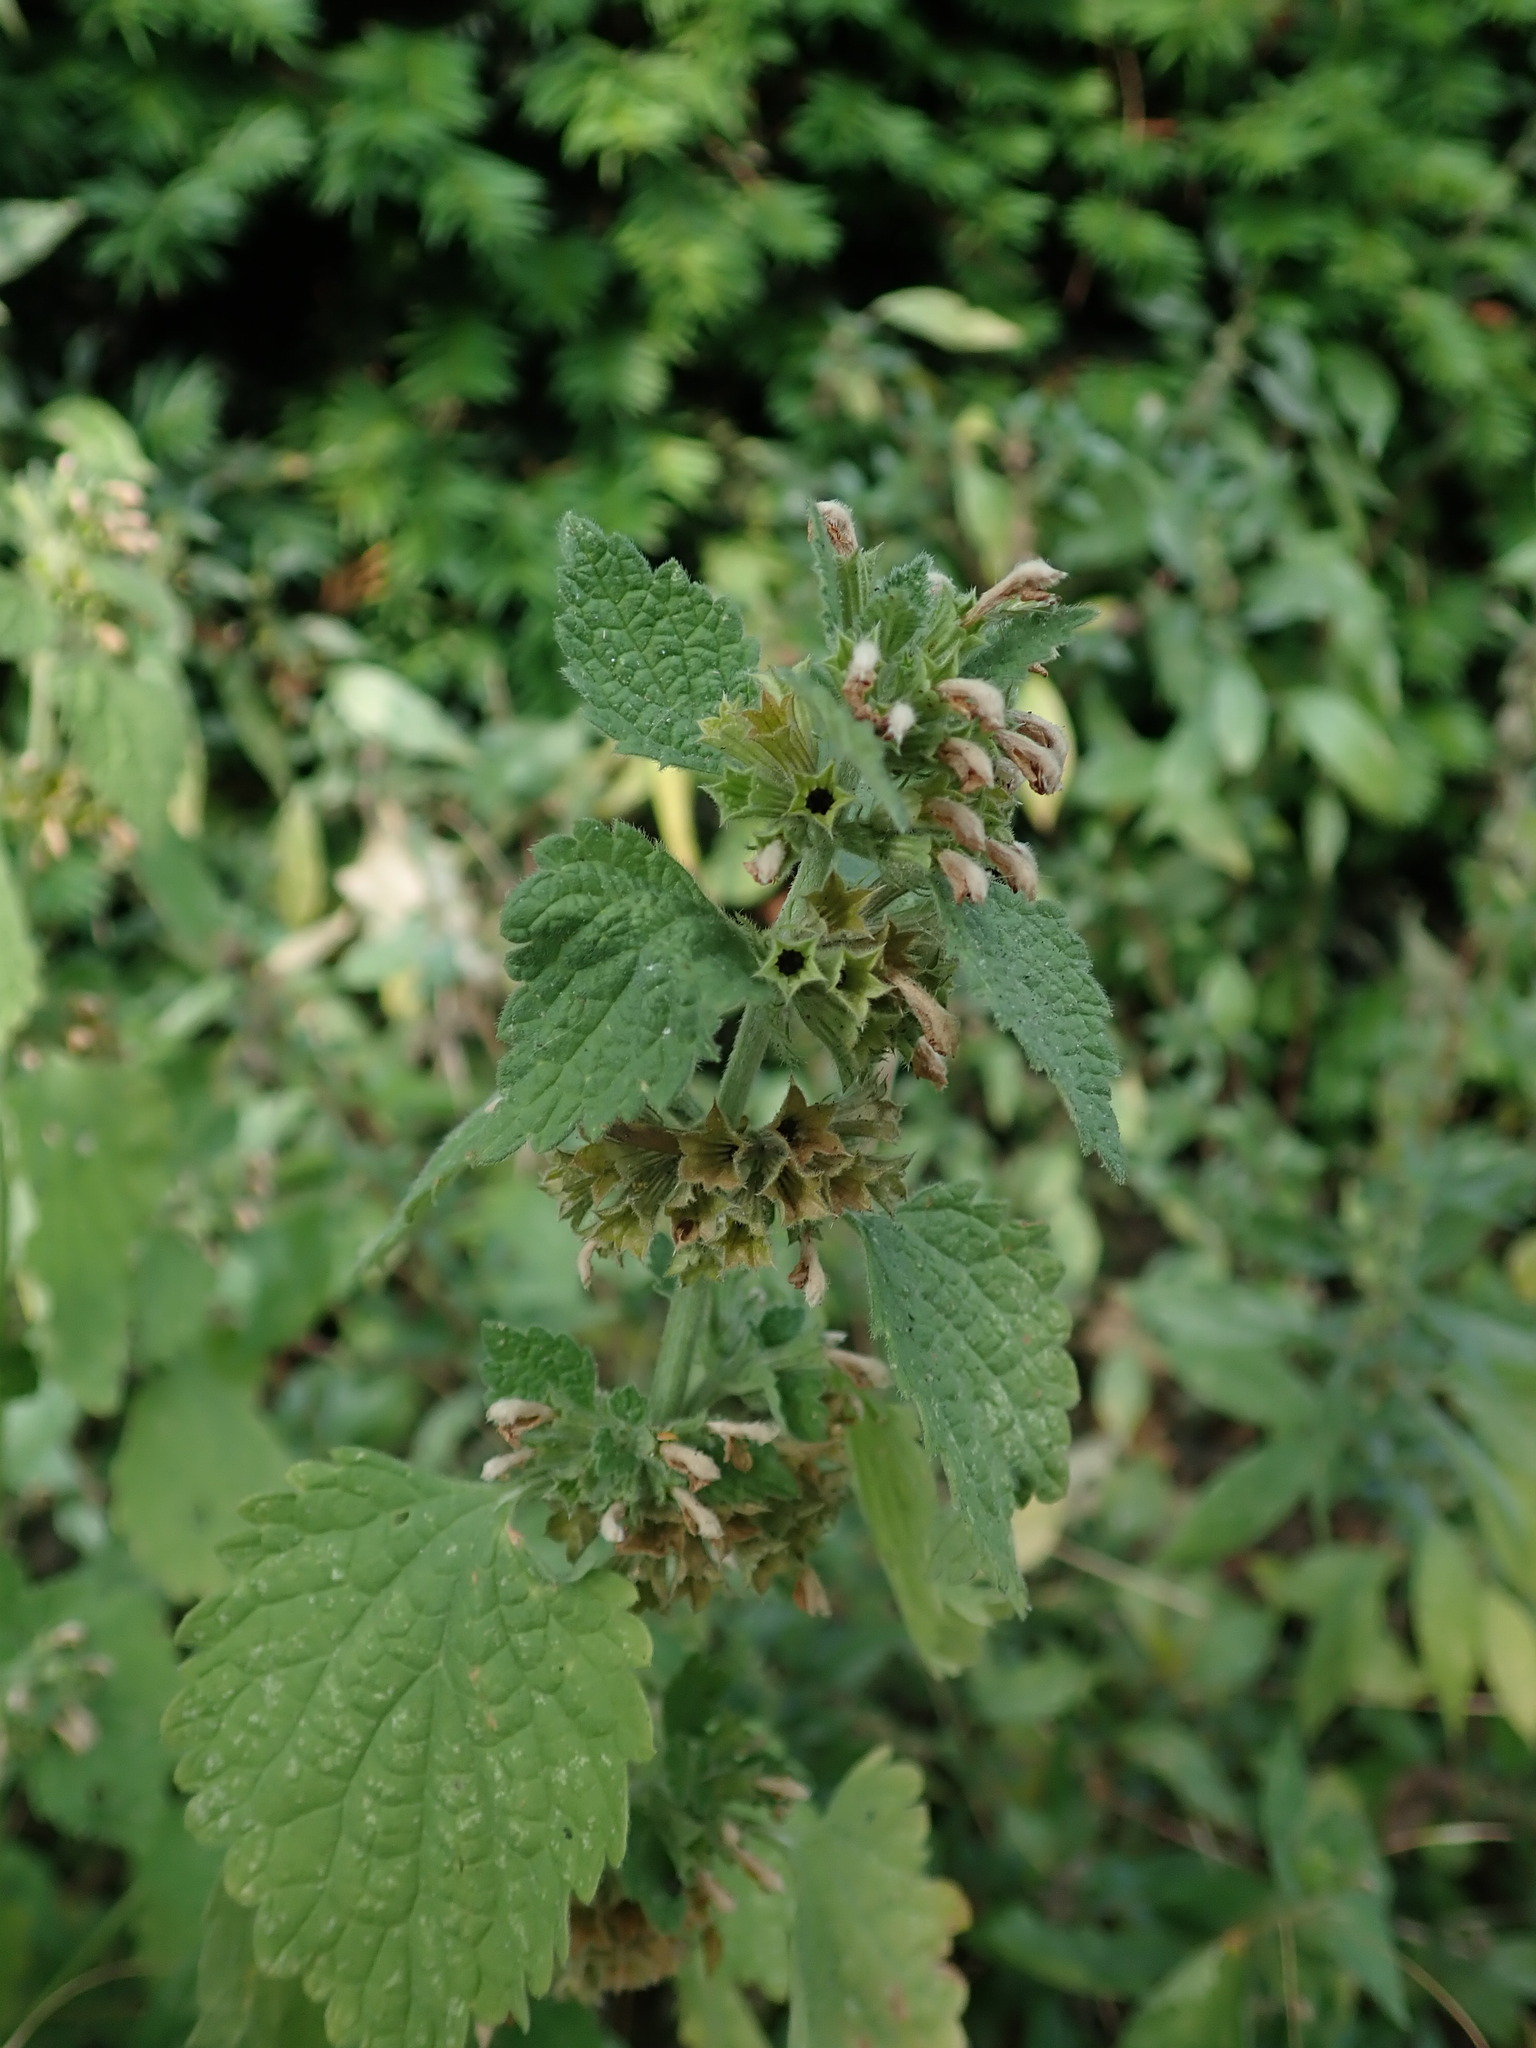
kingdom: Plantae
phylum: Tracheophyta
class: Magnoliopsida
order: Lamiales
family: Lamiaceae
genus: Ballota
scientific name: Ballota nigra
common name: Black horehound
